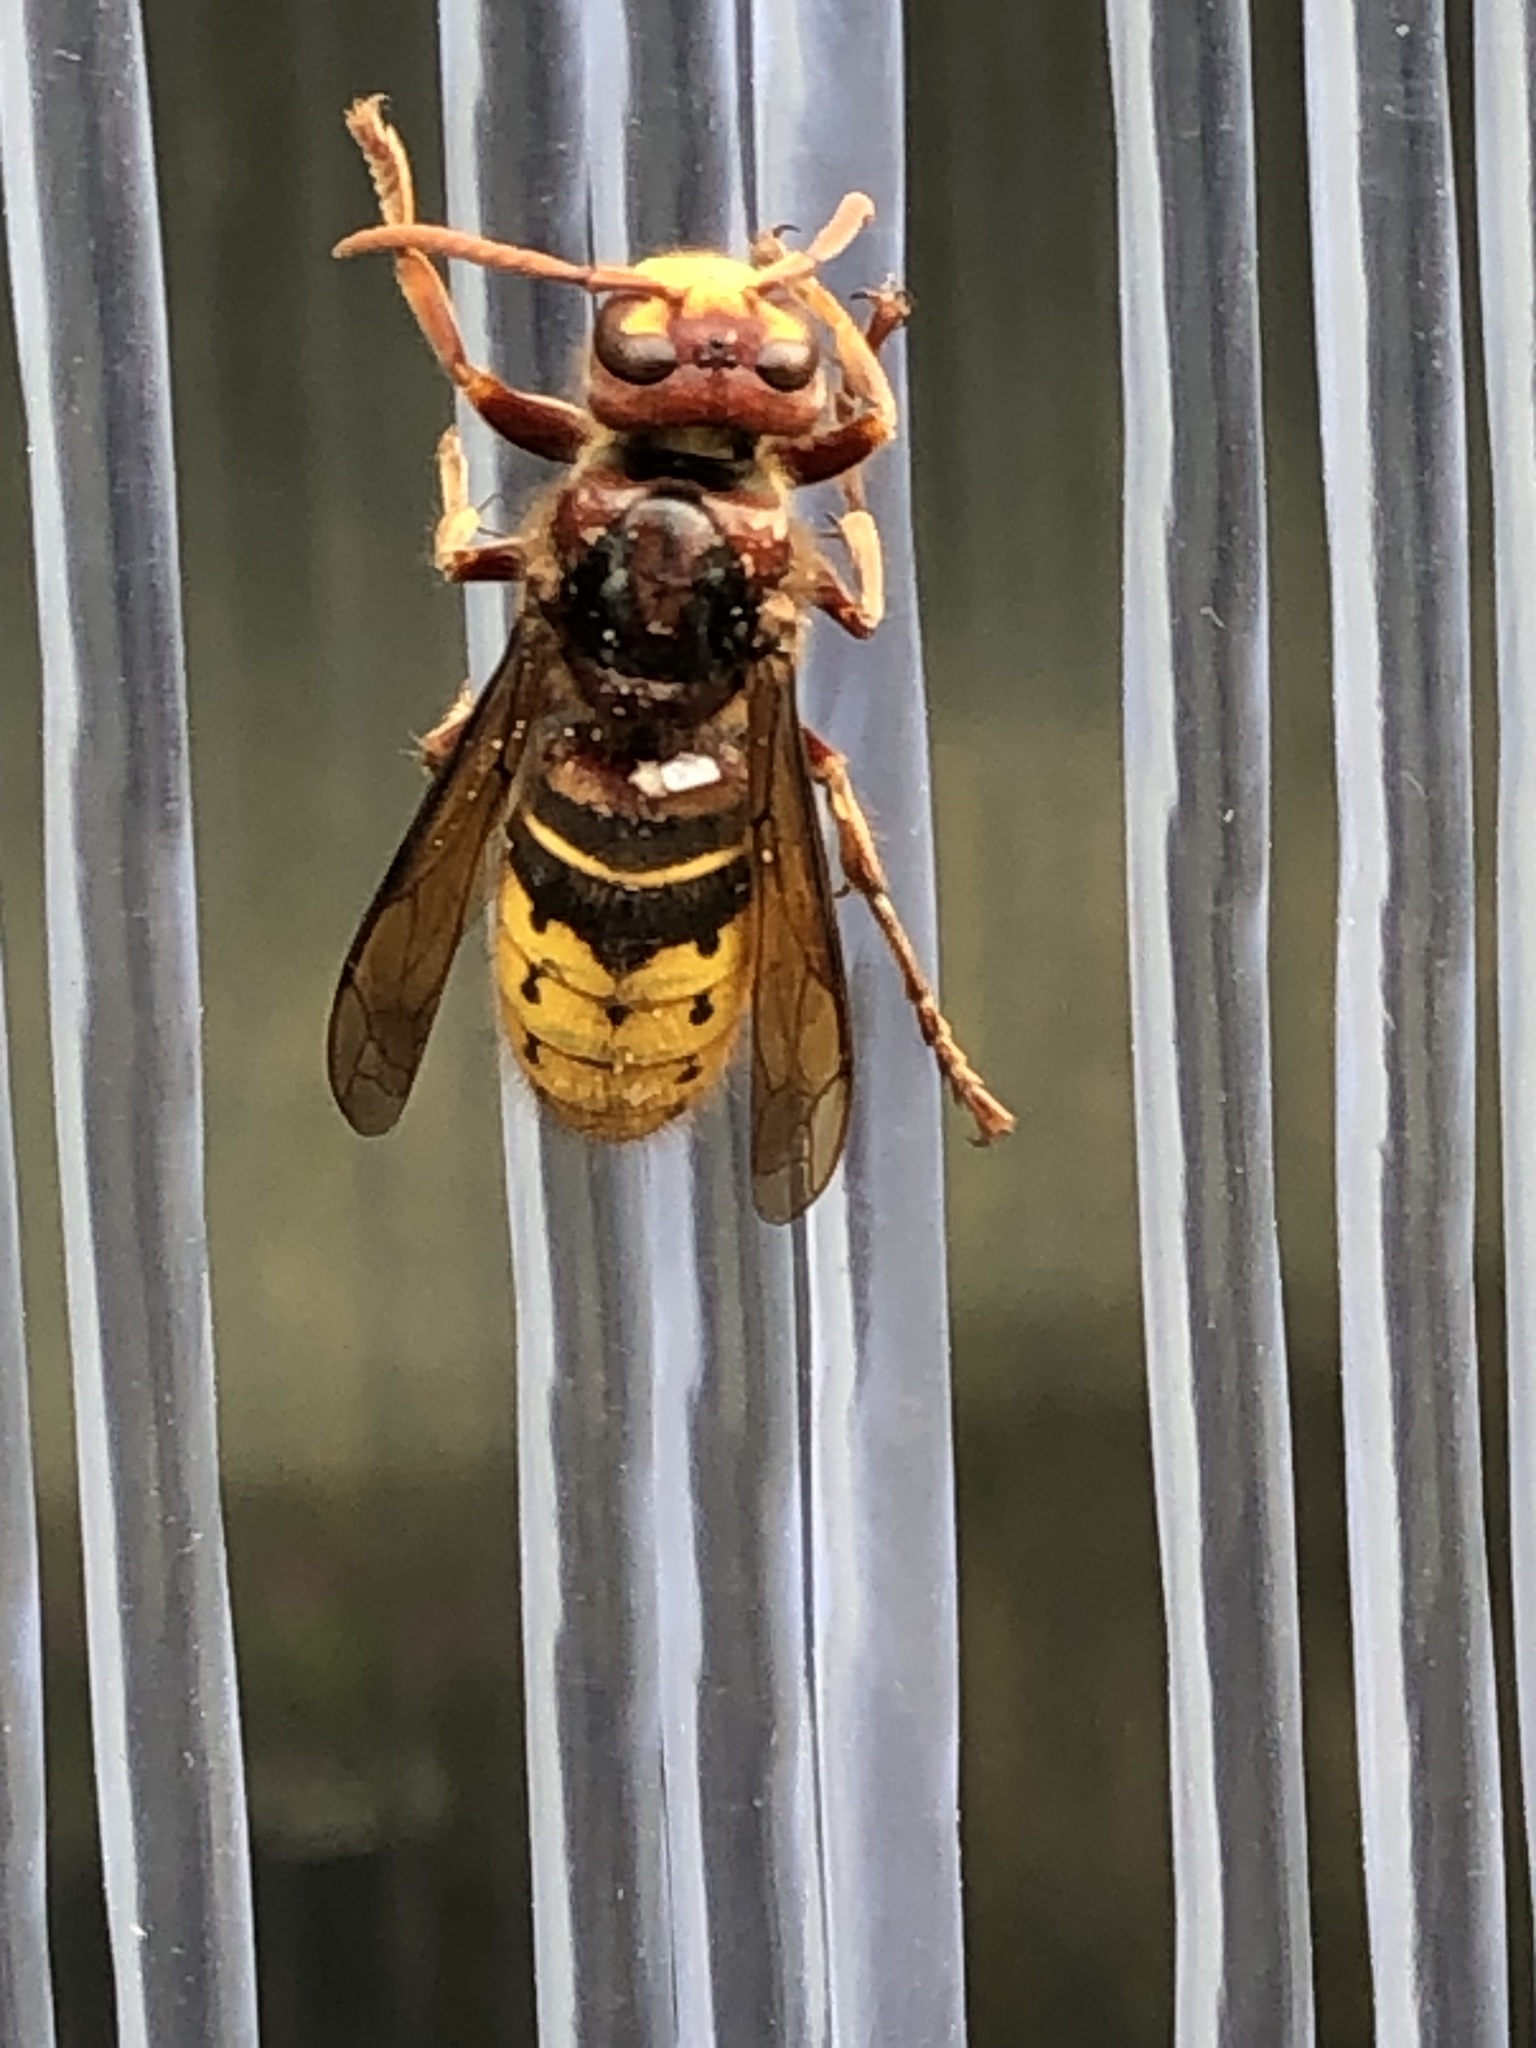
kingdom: Animalia
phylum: Arthropoda
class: Insecta
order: Hymenoptera
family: Vespidae
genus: Vespa
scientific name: Vespa crabro
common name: Hornet
